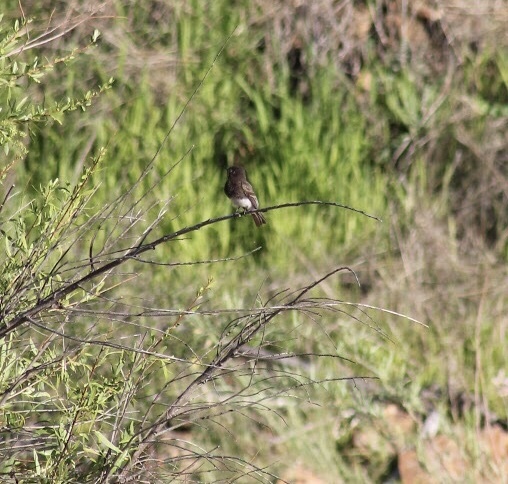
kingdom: Animalia
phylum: Chordata
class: Aves
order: Passeriformes
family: Tyrannidae
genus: Sayornis
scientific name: Sayornis nigricans
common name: Black phoebe
